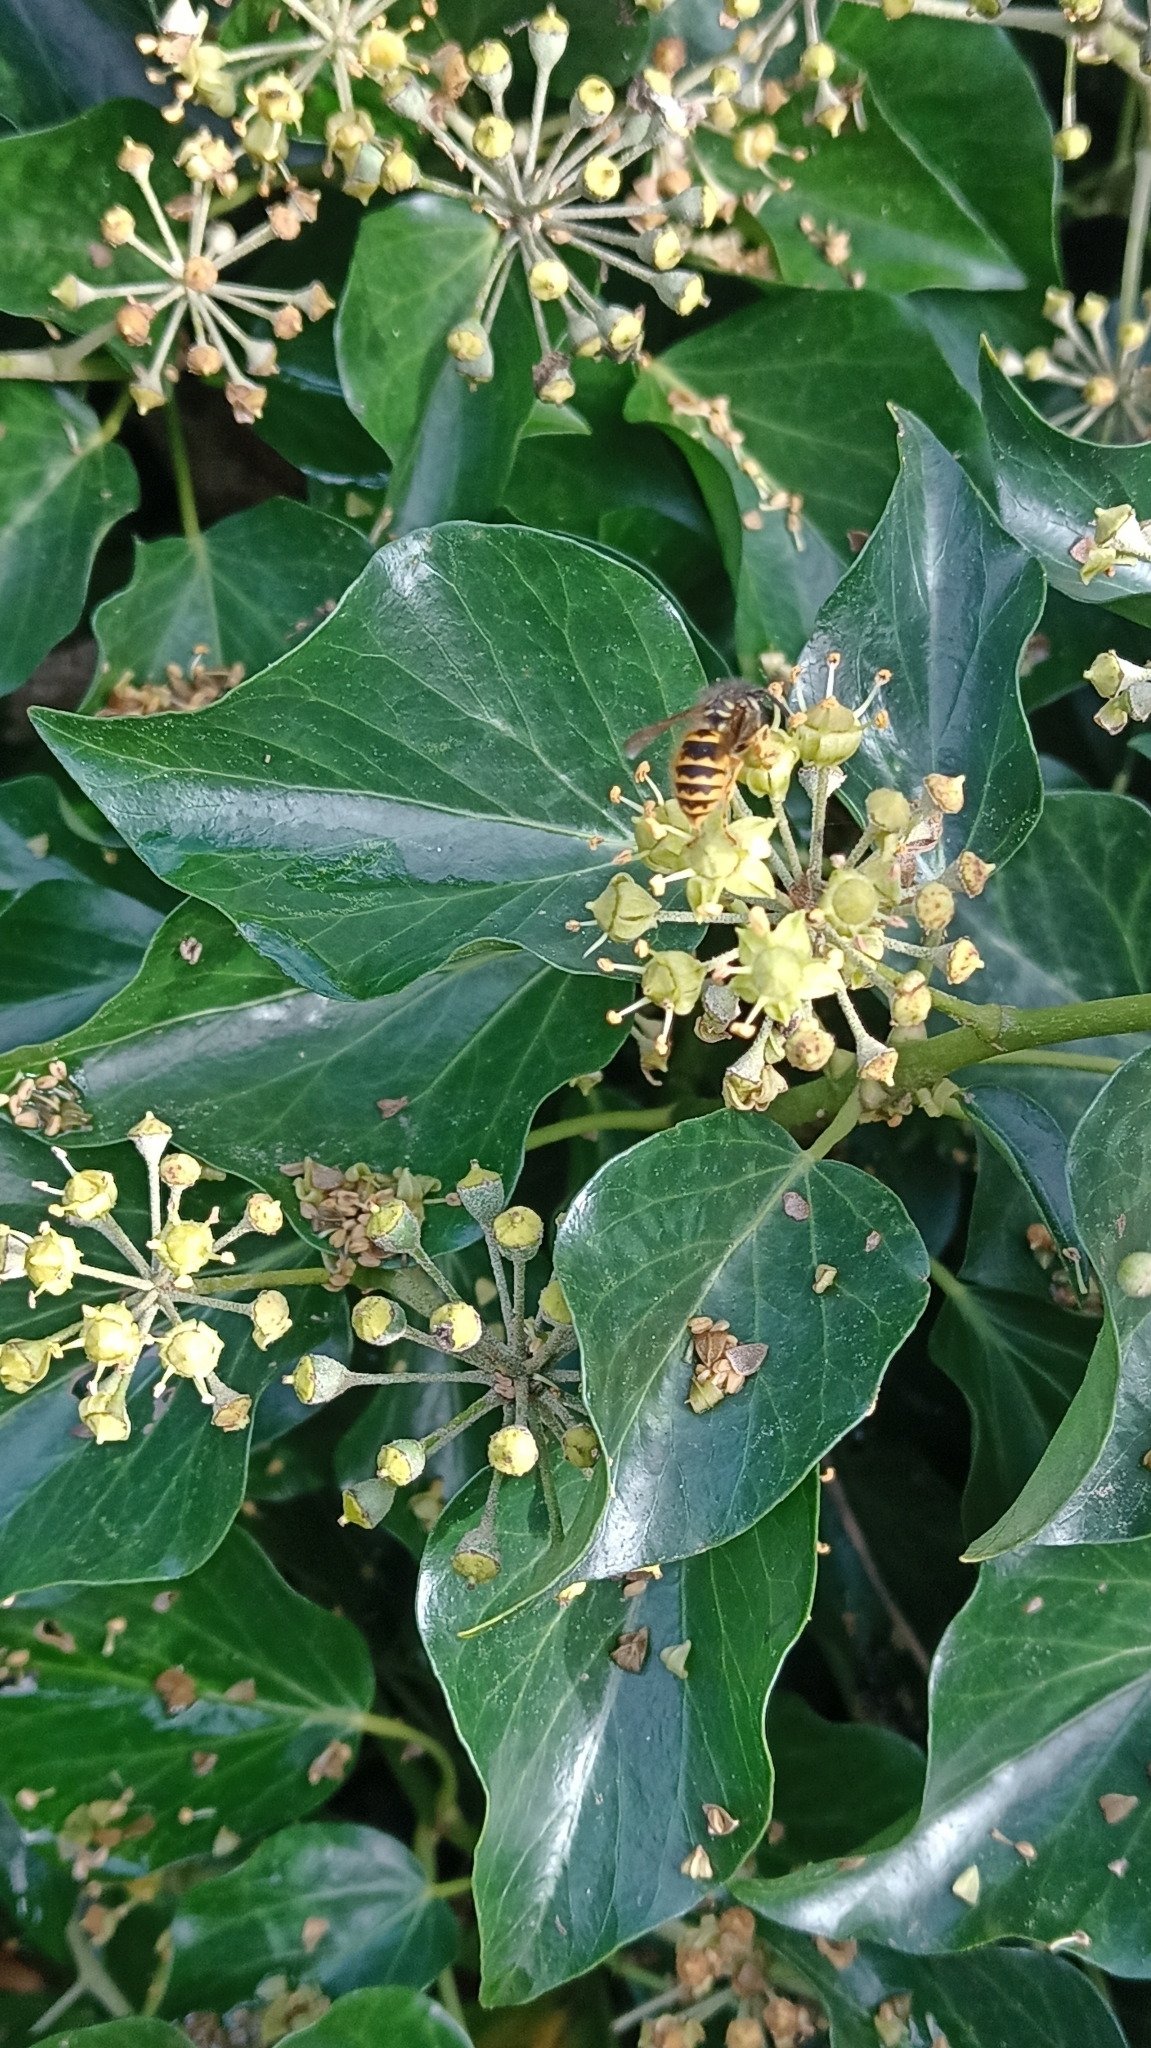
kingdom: Animalia
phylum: Arthropoda
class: Insecta
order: Hymenoptera
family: Vespidae
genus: Vespula
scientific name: Vespula vulgaris
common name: Common wasp
